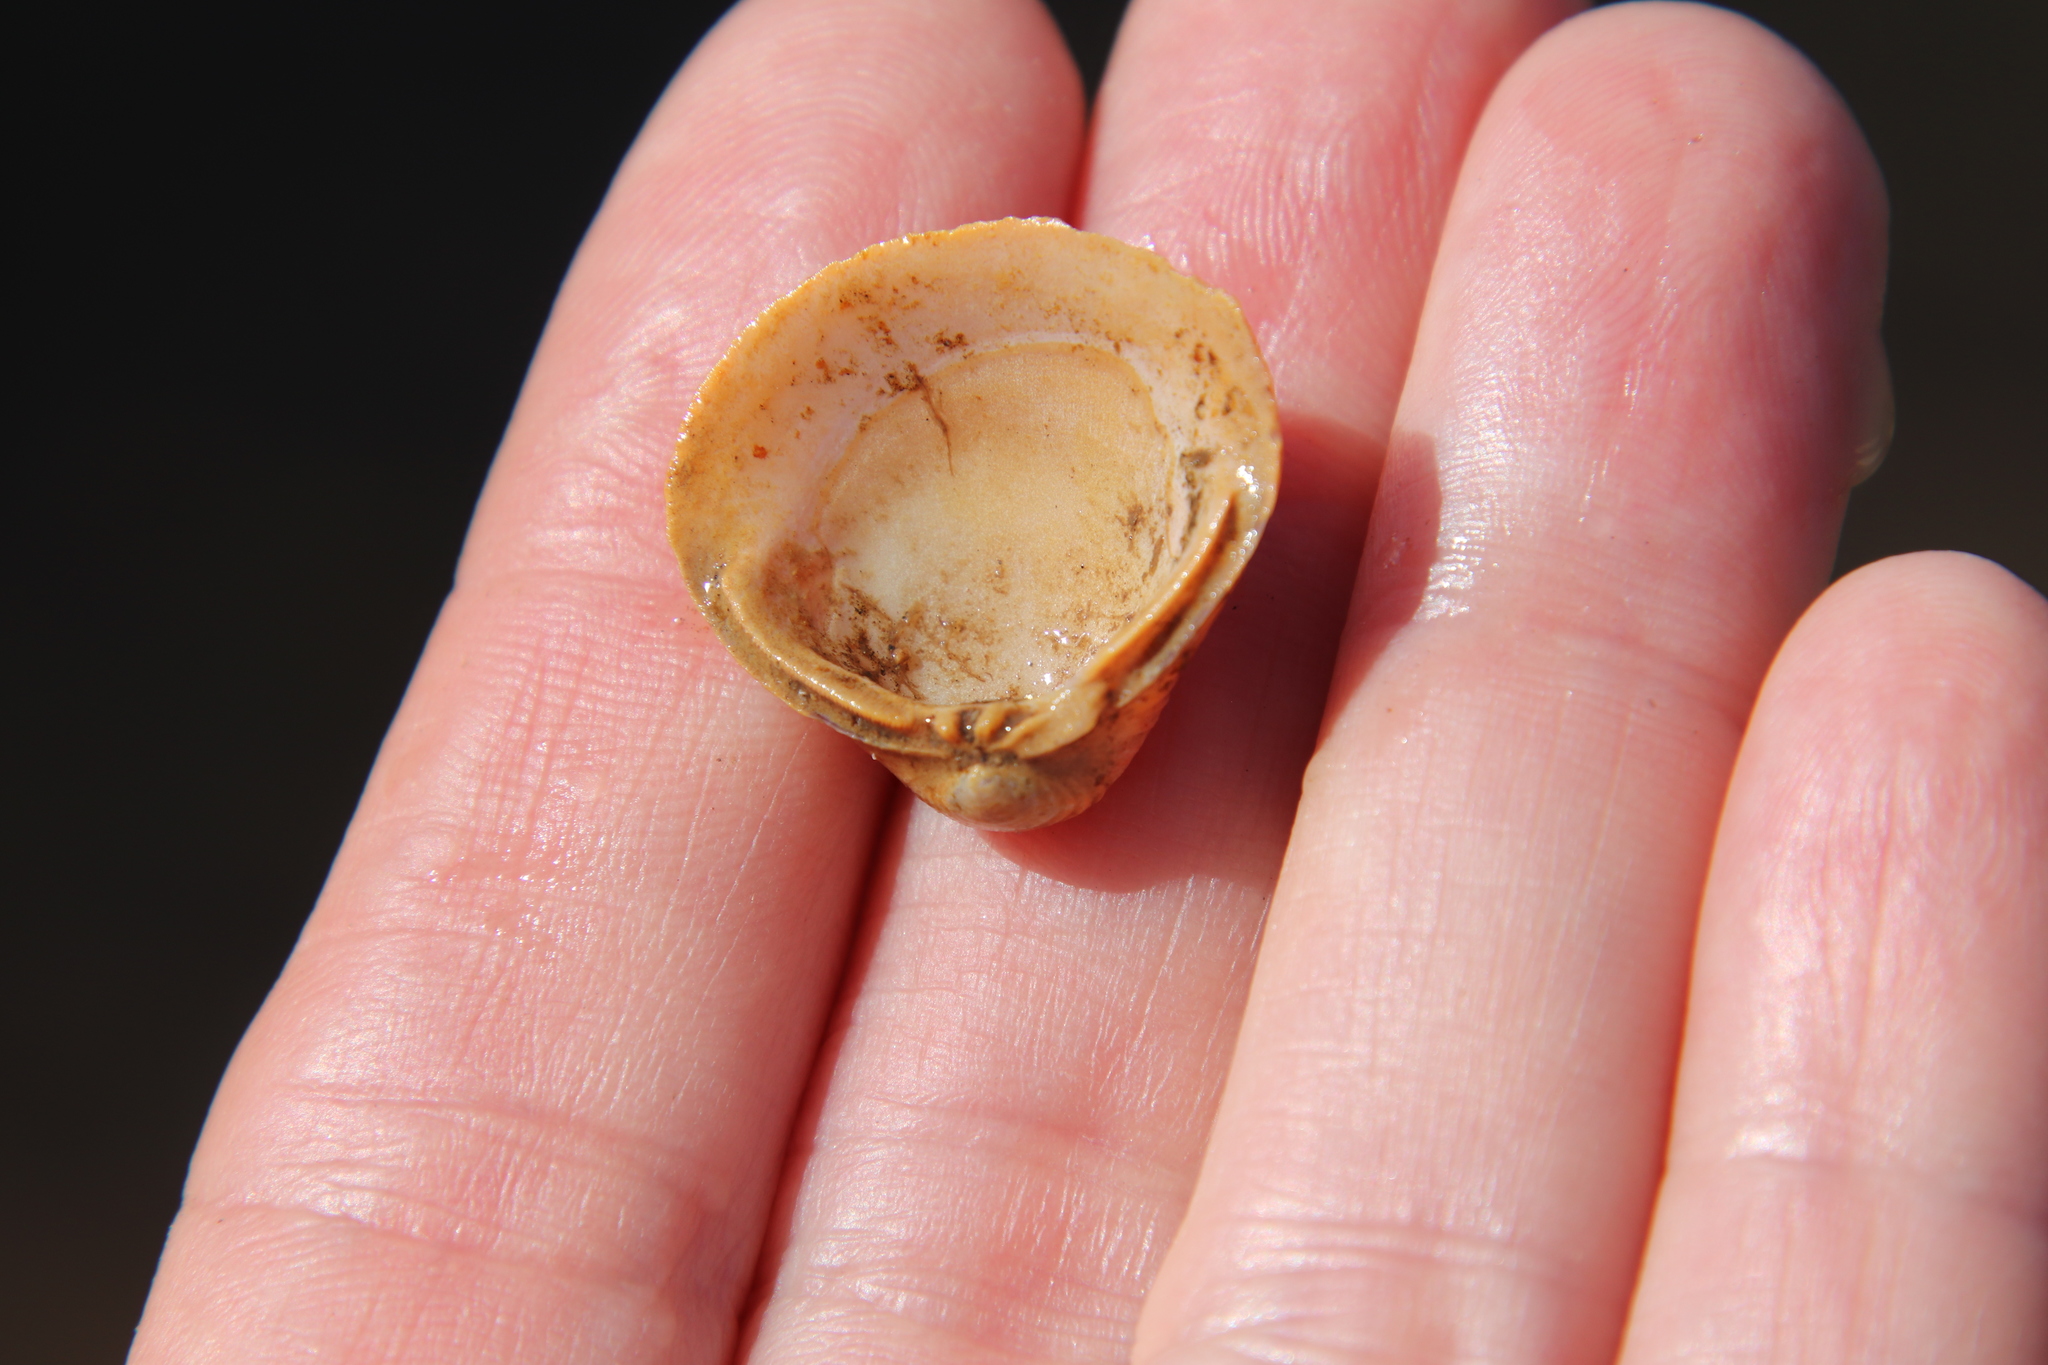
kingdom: Animalia
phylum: Mollusca
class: Bivalvia
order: Venerida
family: Cyrenidae
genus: Corbicula
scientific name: Corbicula fluminea
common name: Asian clam
